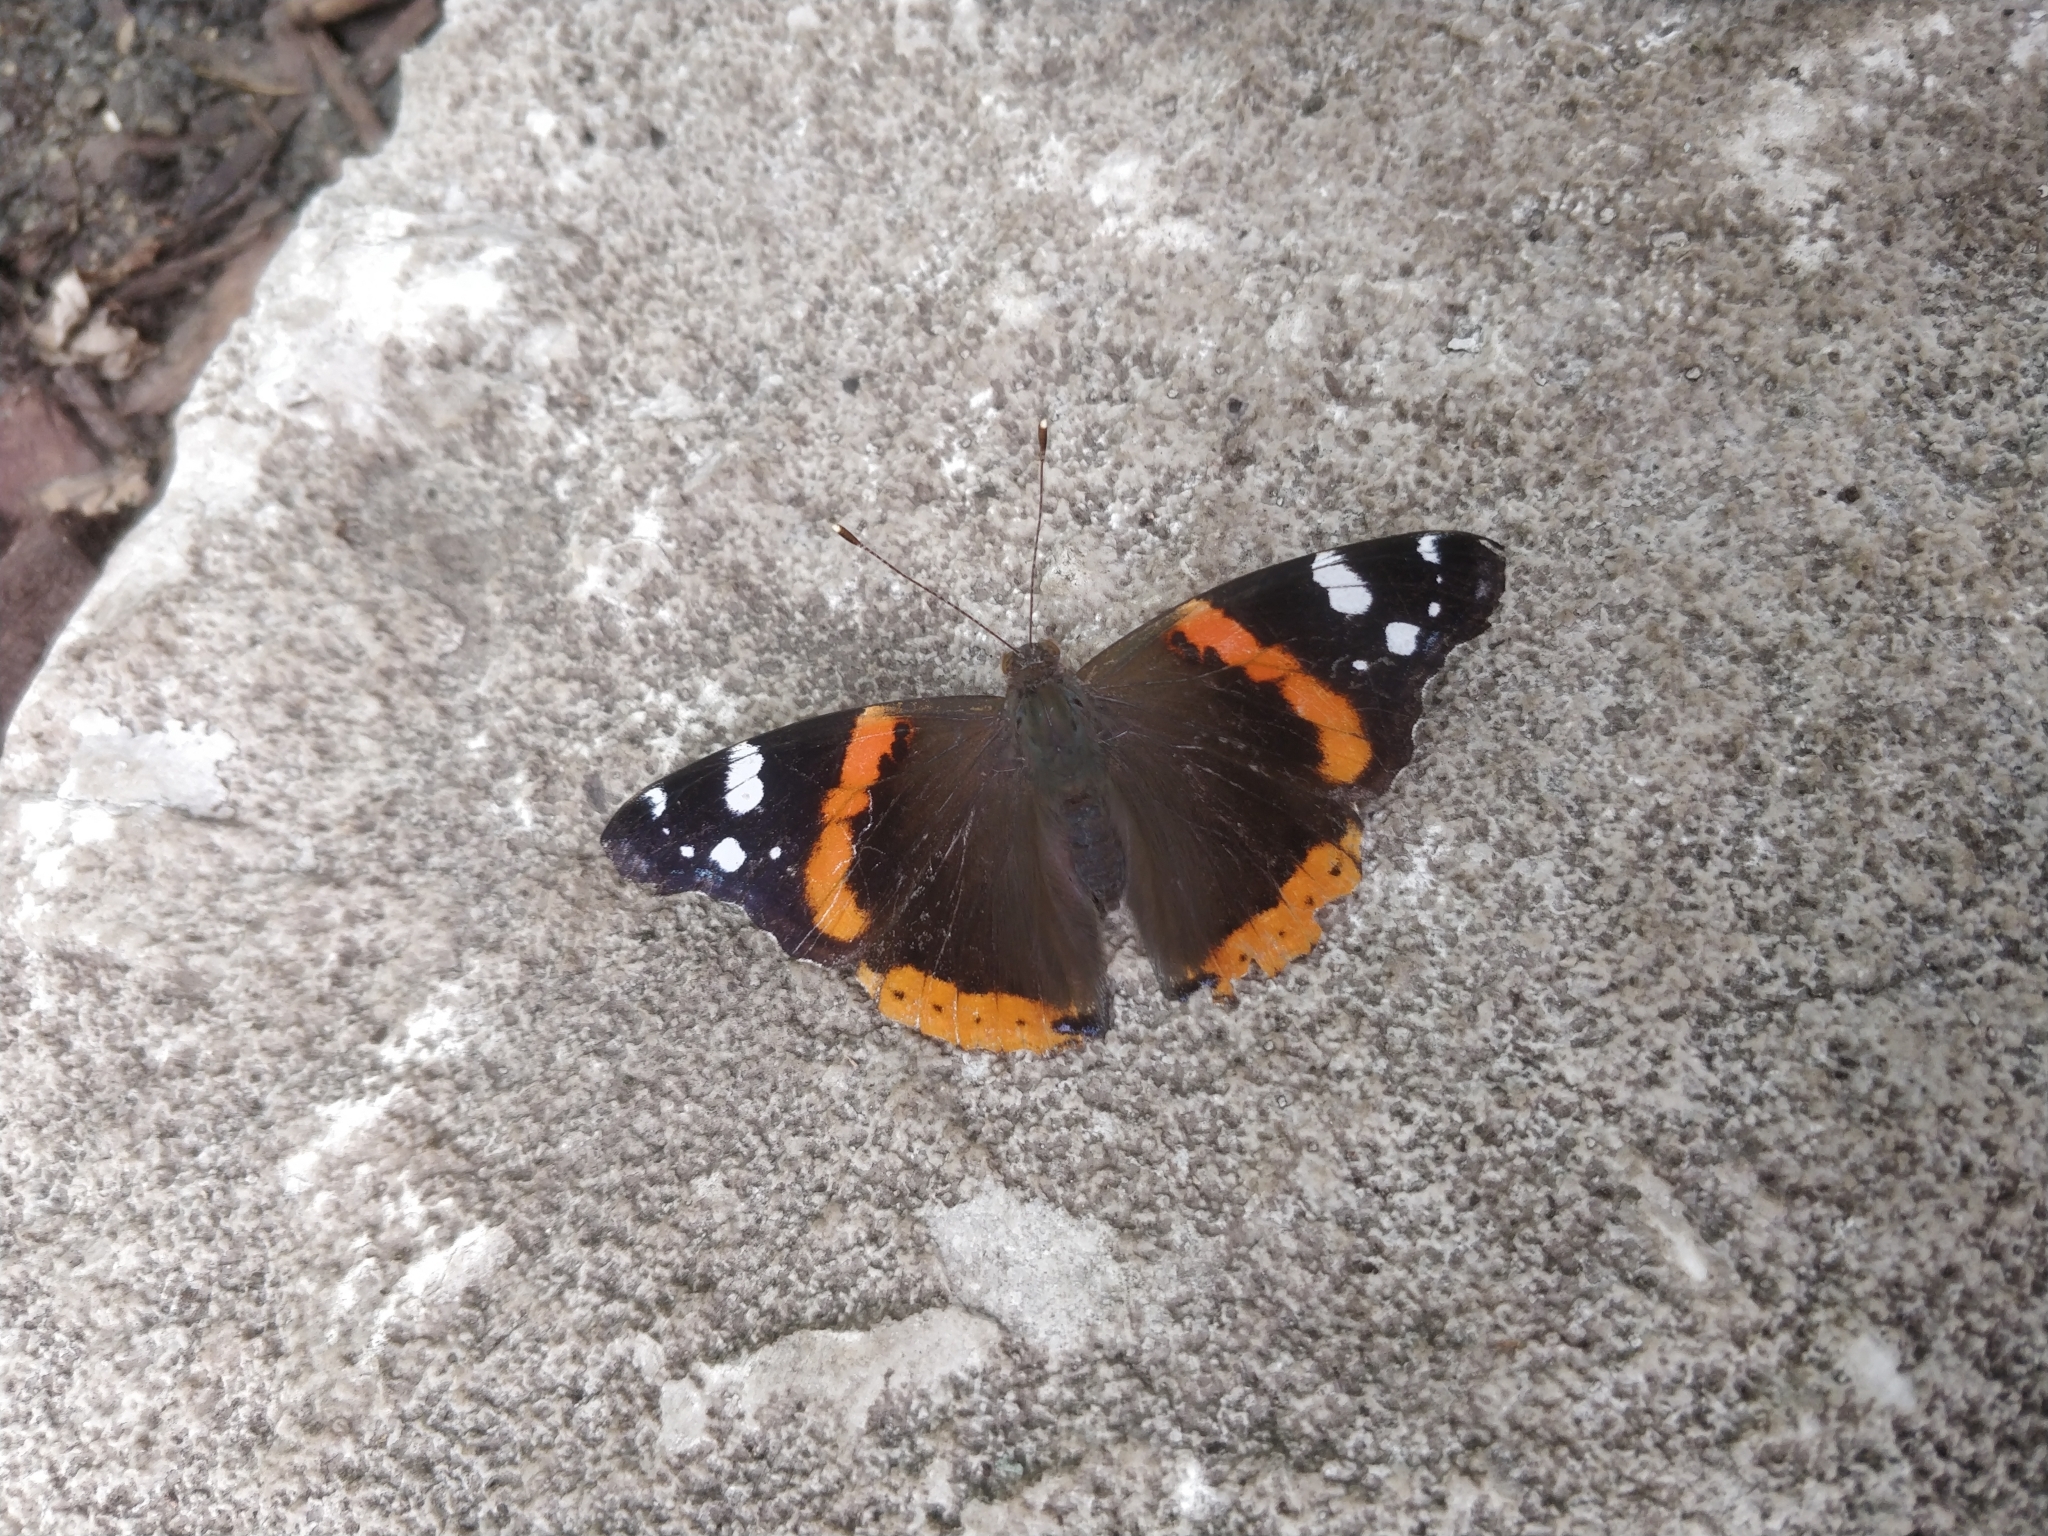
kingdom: Animalia
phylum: Arthropoda
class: Insecta
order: Lepidoptera
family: Nymphalidae
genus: Vanessa
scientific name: Vanessa atalanta
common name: Red admiral
